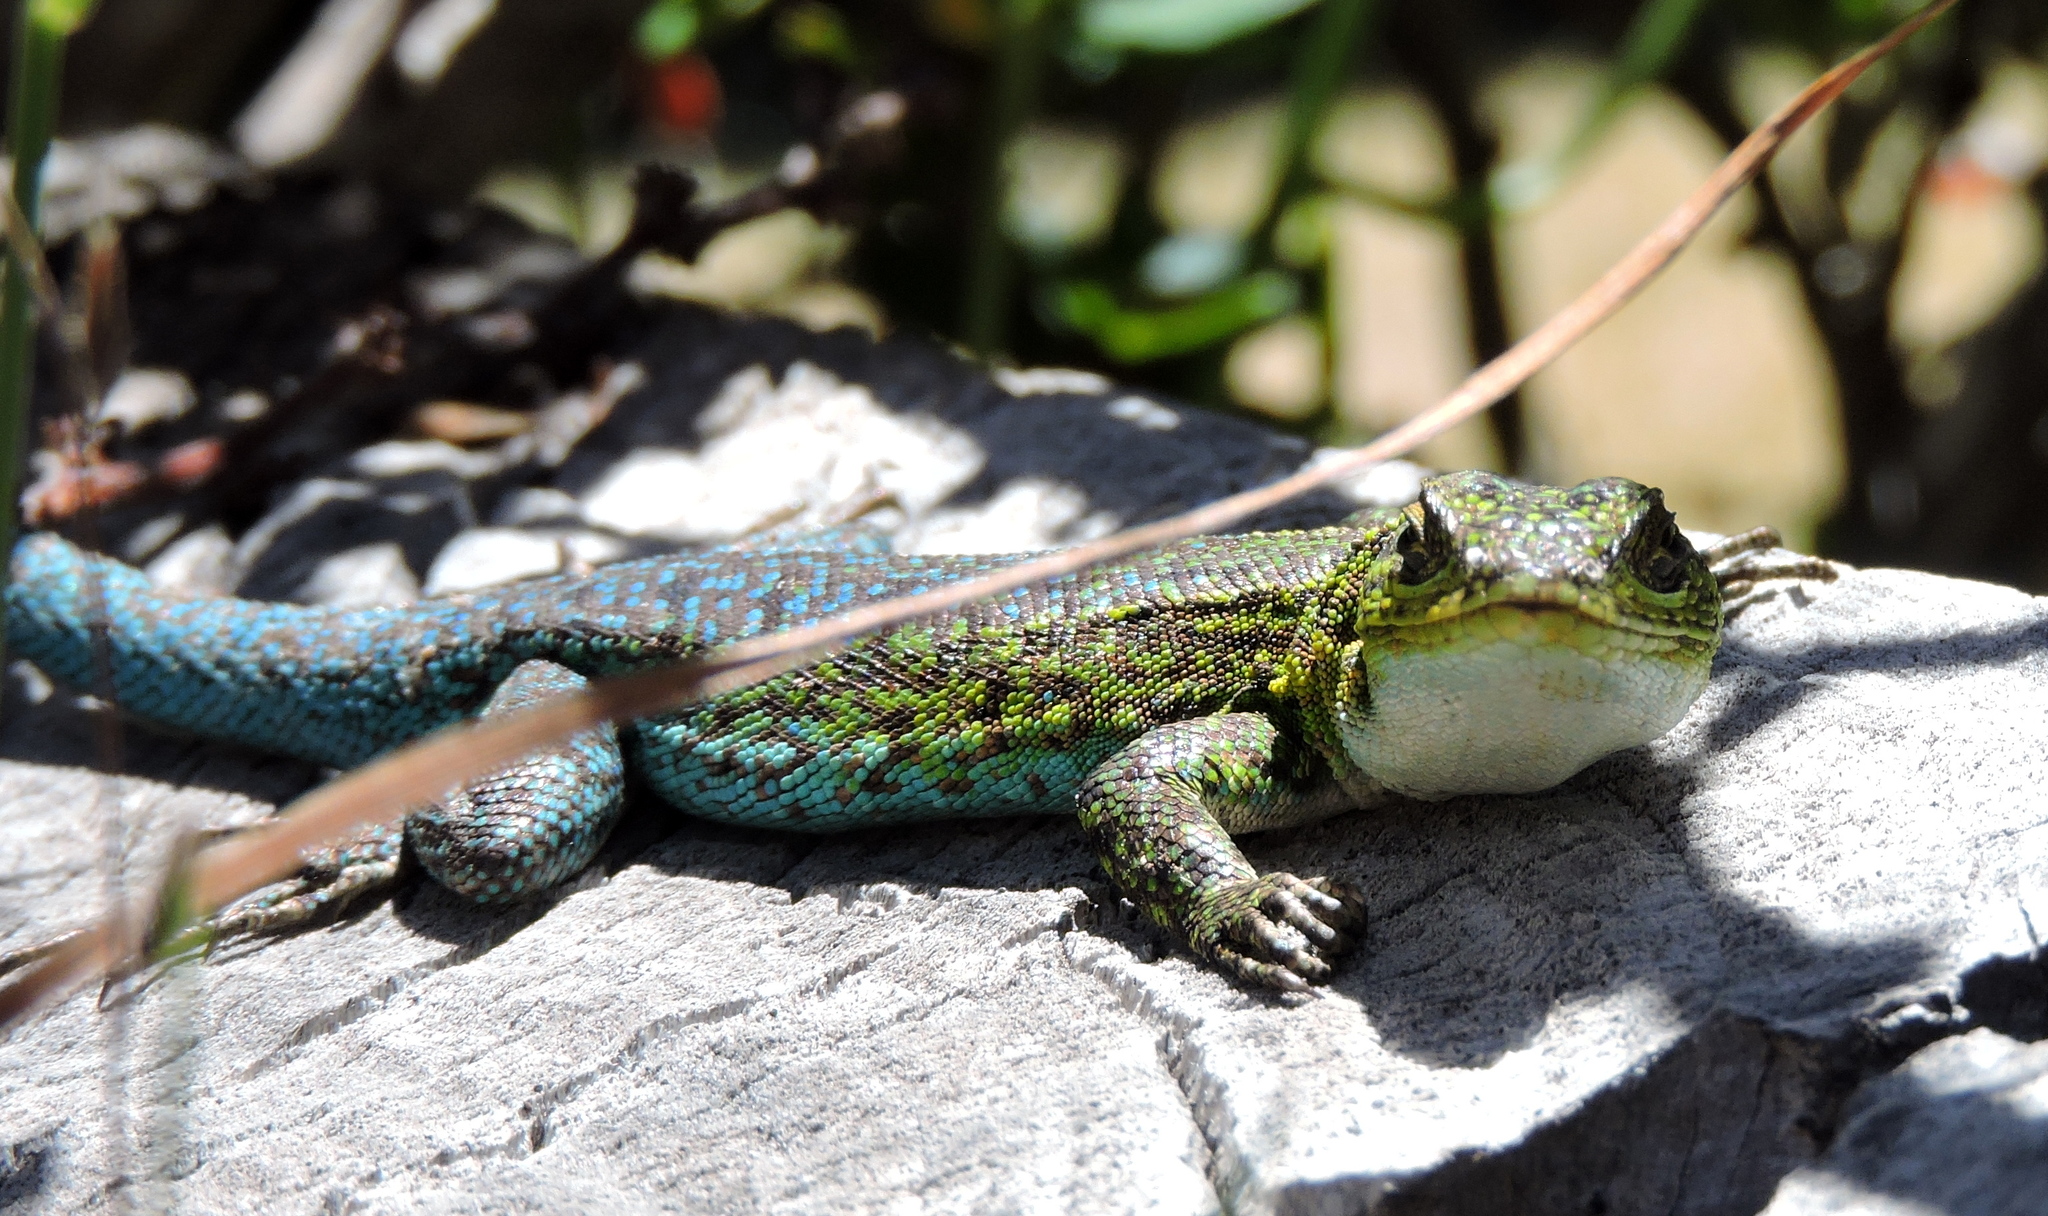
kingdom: Animalia
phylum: Chordata
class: Squamata
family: Liolaemidae
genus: Liolaemus
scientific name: Liolaemus tenuis
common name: Thin tree iguana
